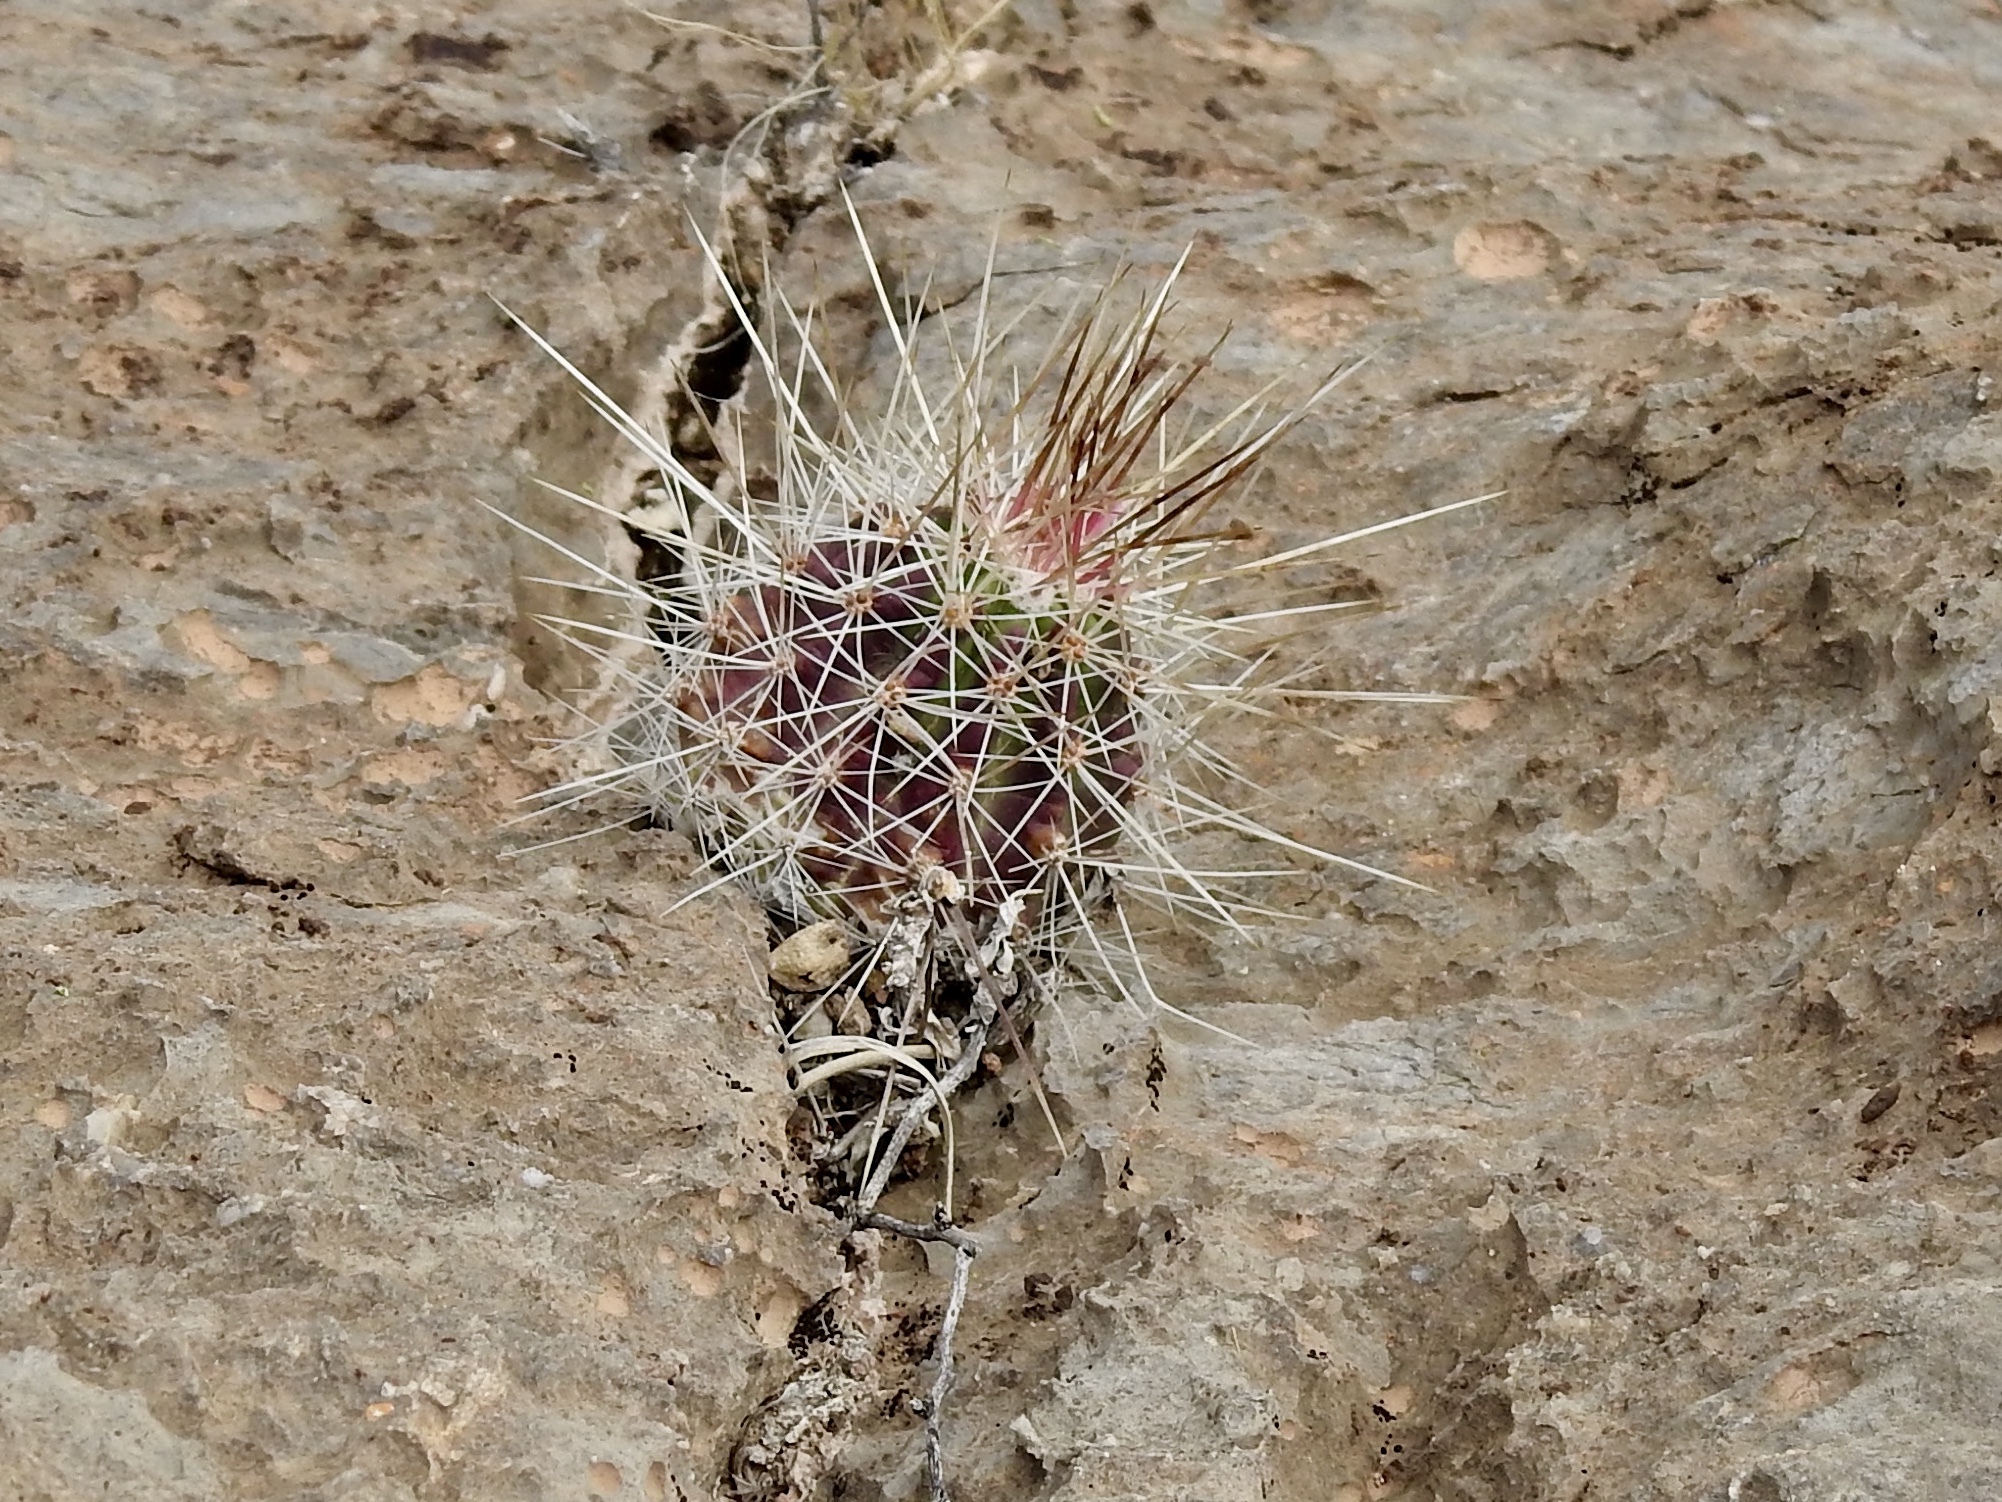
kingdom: Plantae
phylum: Tracheophyta
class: Magnoliopsida
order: Caryophyllales
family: Cactaceae
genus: Echinocereus
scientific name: Echinocereus stramineus
